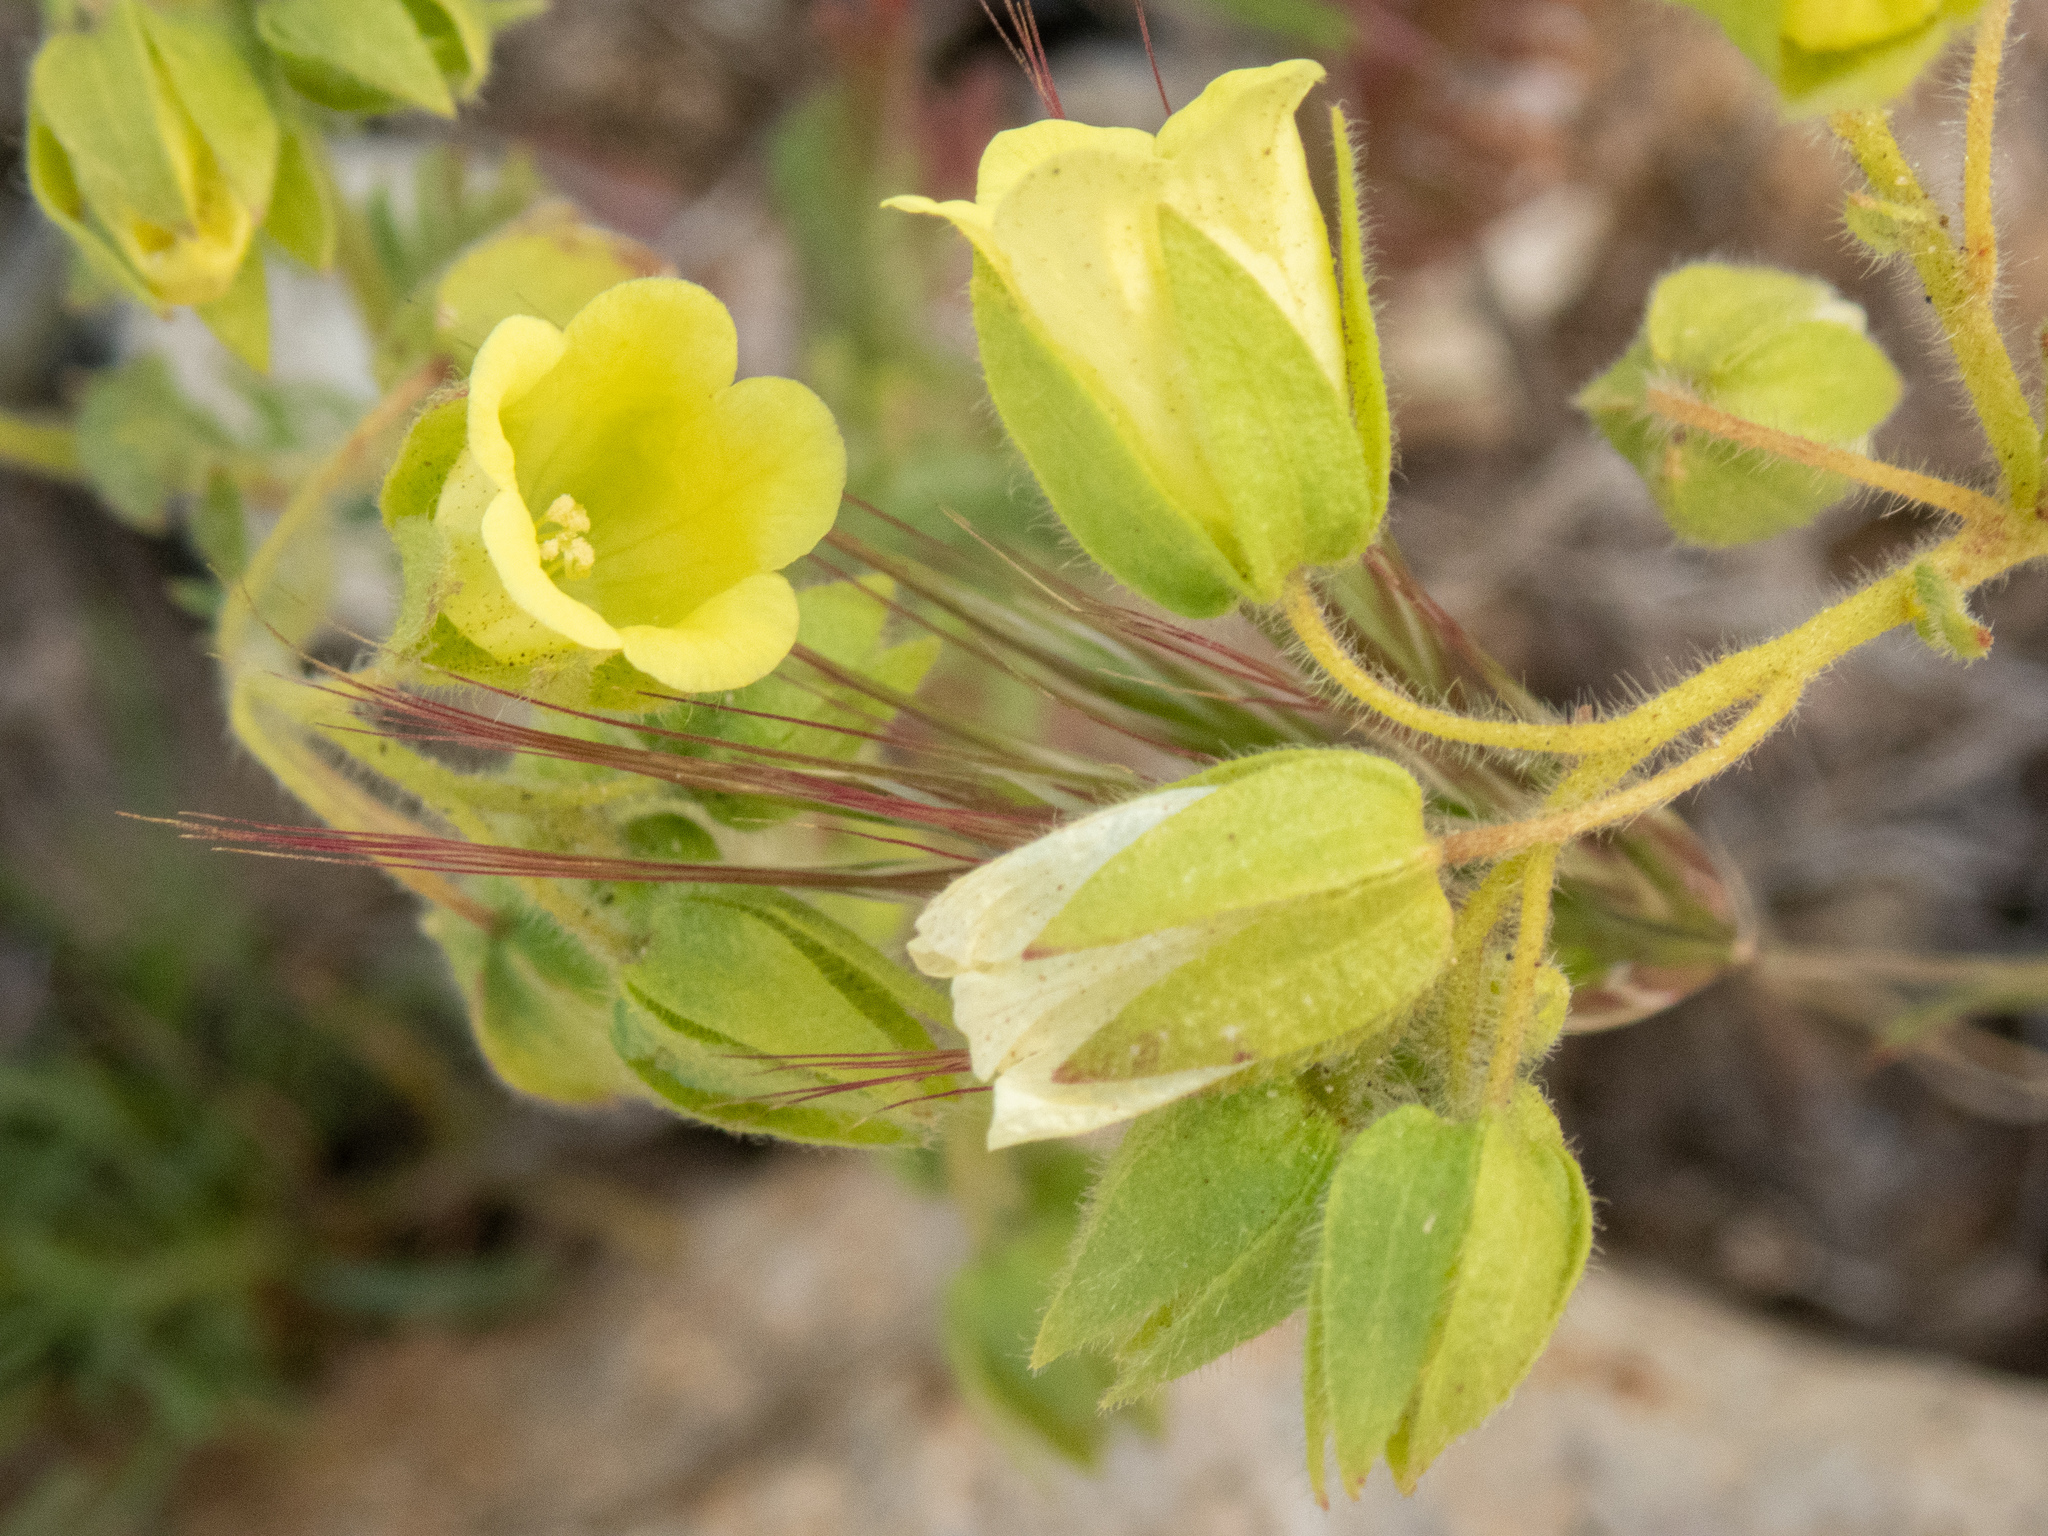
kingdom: Plantae
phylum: Tracheophyta
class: Magnoliopsida
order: Boraginales
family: Hydrophyllaceae
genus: Emmenanthe
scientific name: Emmenanthe penduliflora
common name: Whispering-bells
